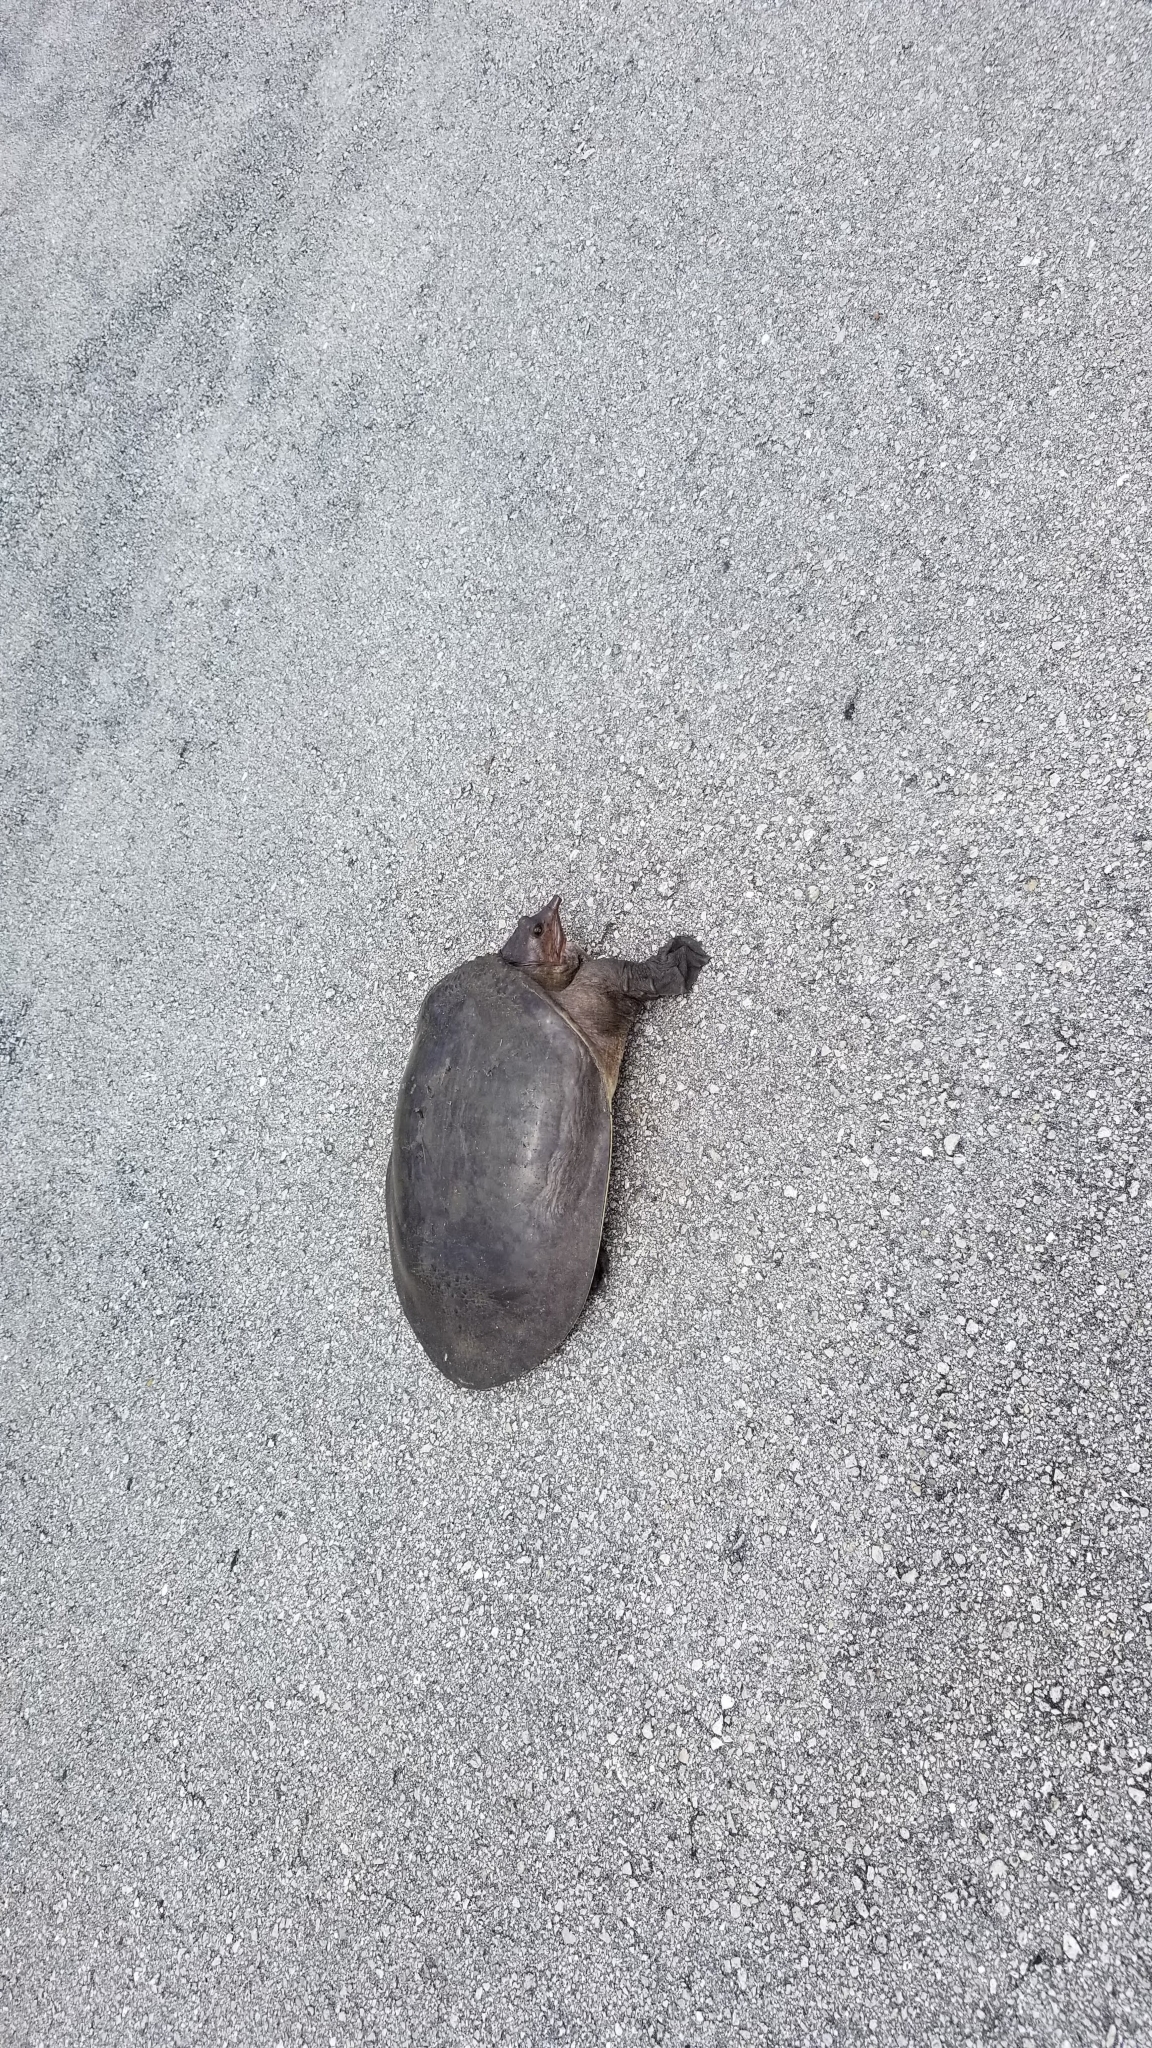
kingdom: Animalia
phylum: Chordata
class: Testudines
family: Trionychidae
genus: Apalone
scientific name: Apalone ferox
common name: Florida softshell turtle
